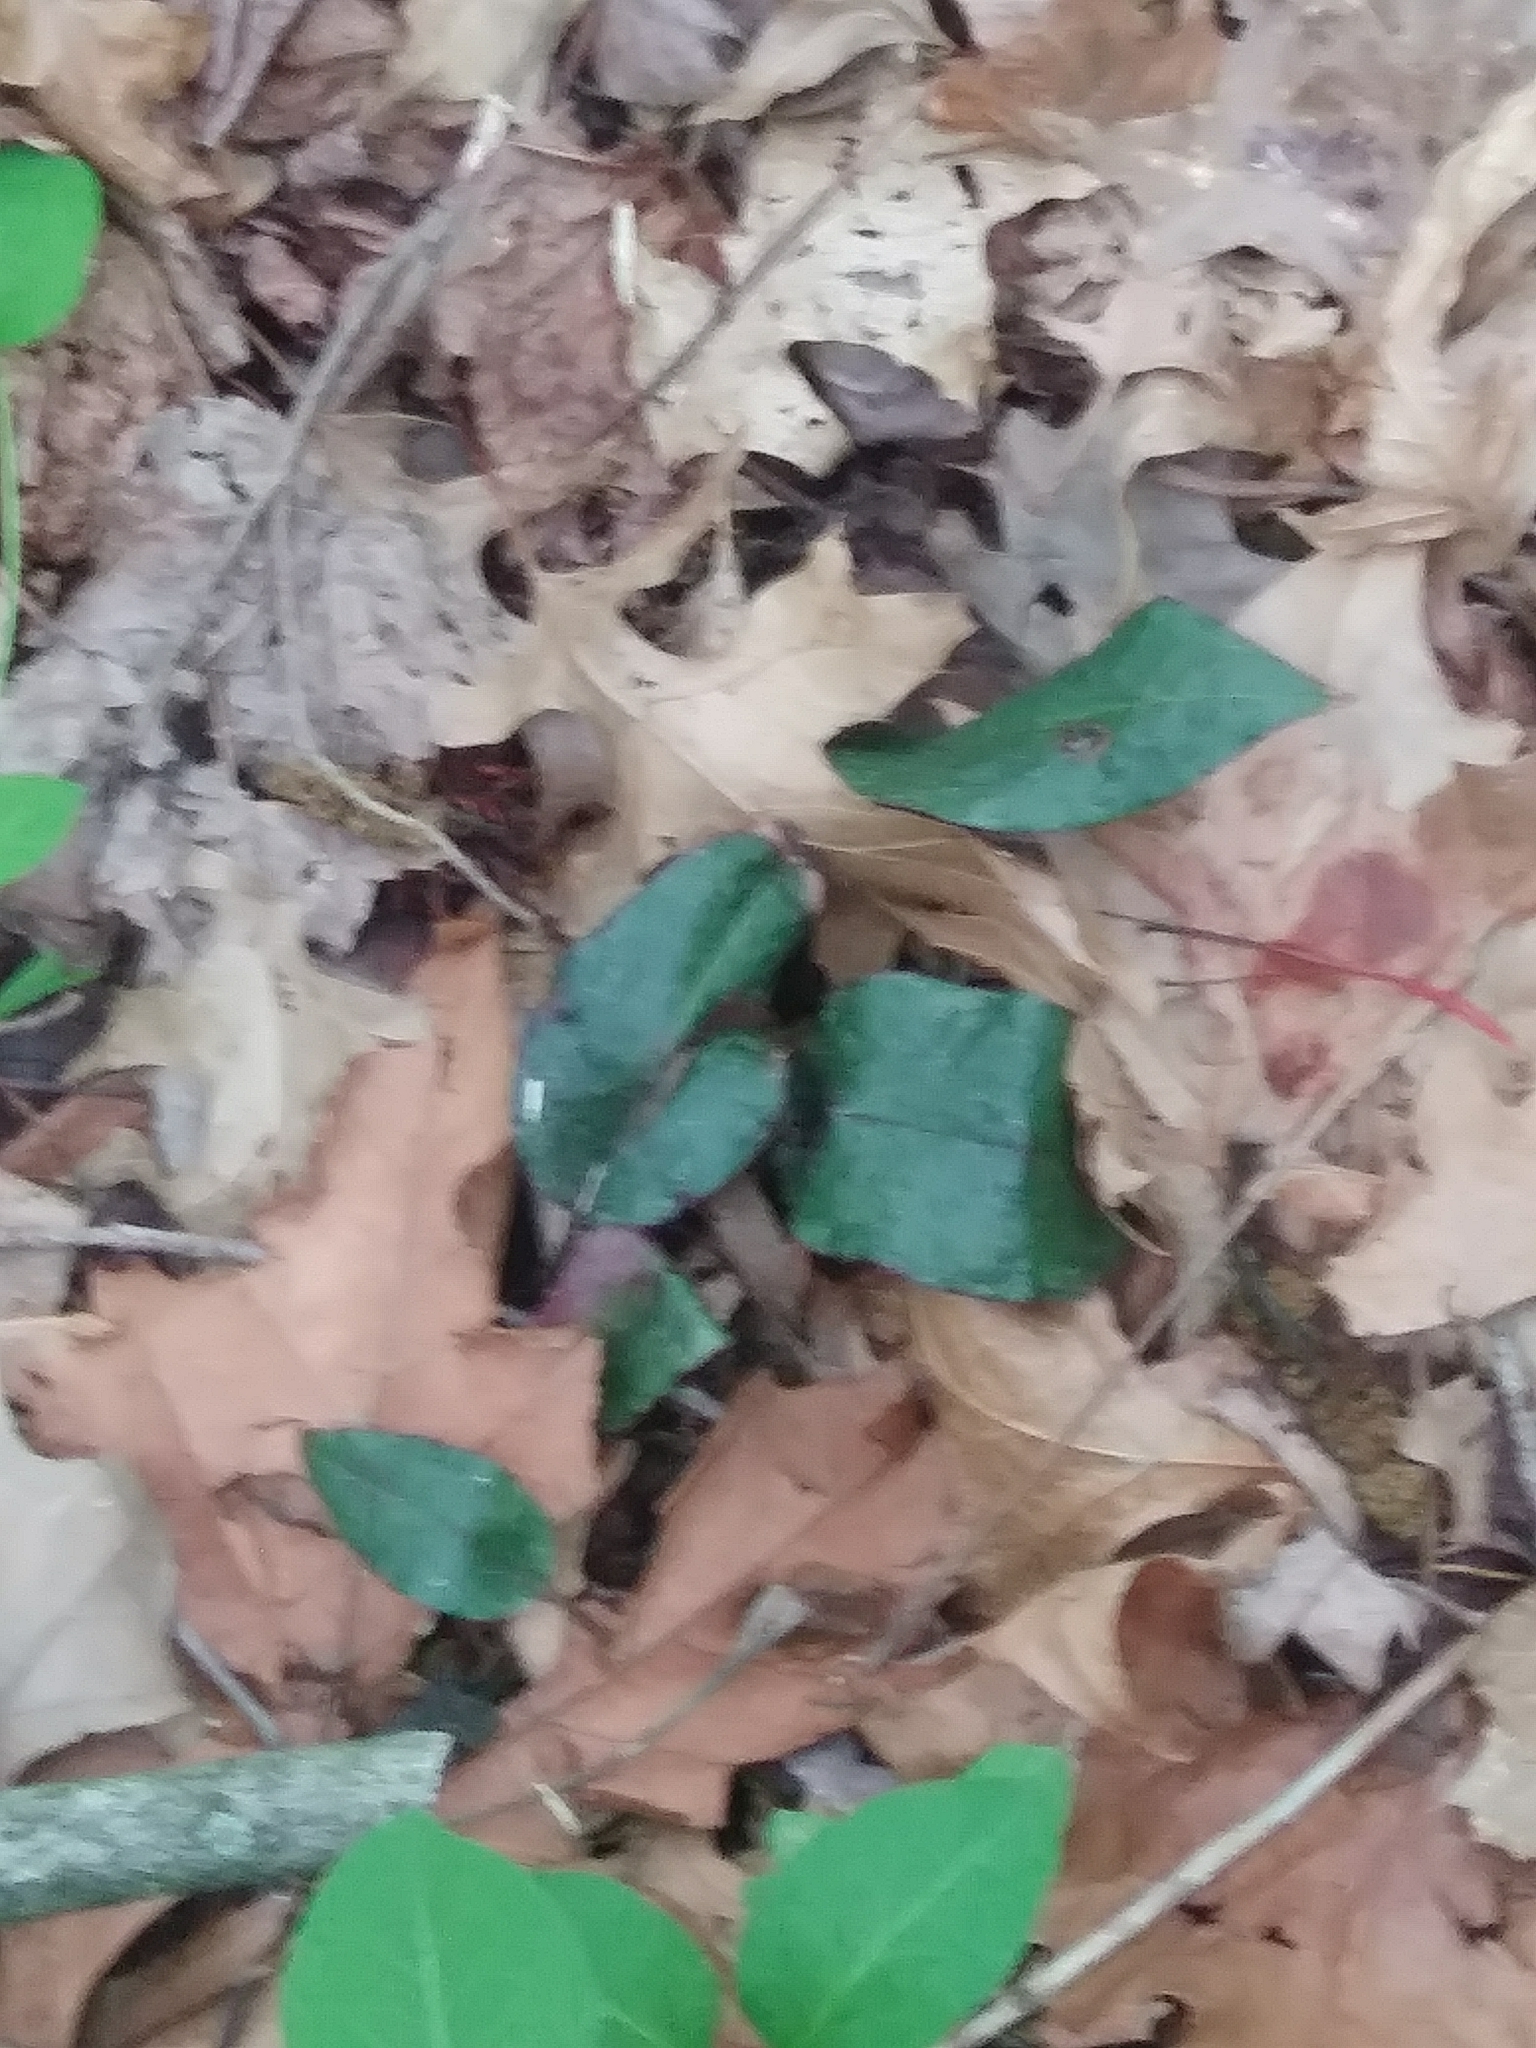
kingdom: Plantae
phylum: Tracheophyta
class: Liliopsida
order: Asparagales
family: Orchidaceae
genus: Tipularia
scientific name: Tipularia discolor
